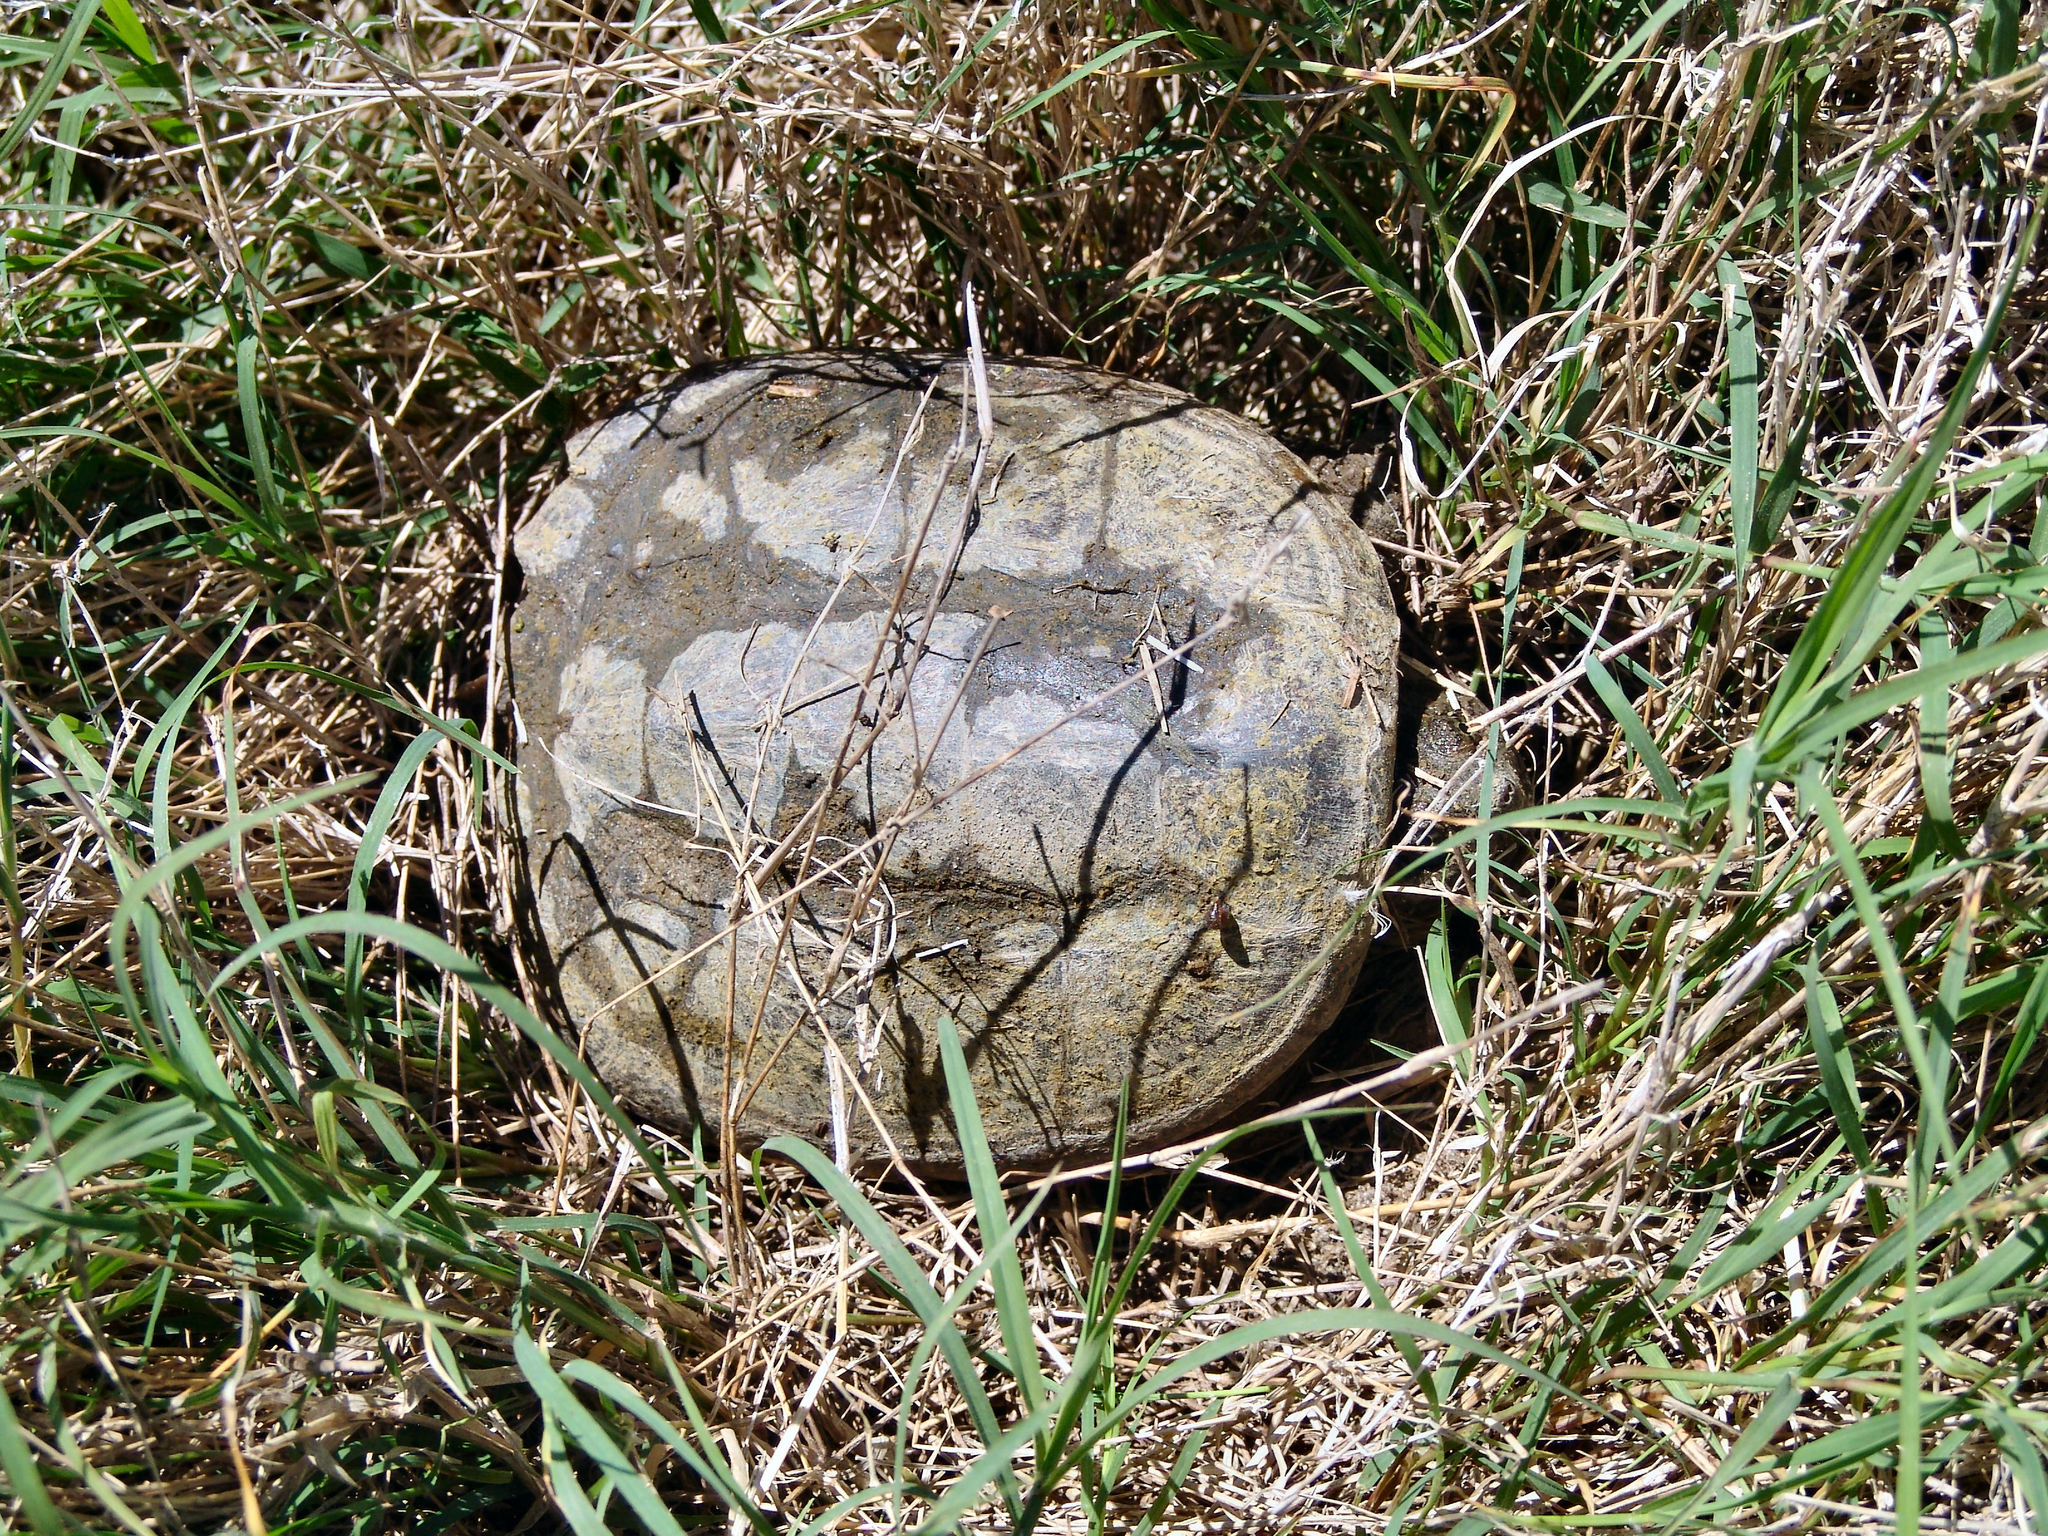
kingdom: Animalia
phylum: Chordata
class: Testudines
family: Chelydridae
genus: Chelydra
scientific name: Chelydra serpentina
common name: Common snapping turtle
